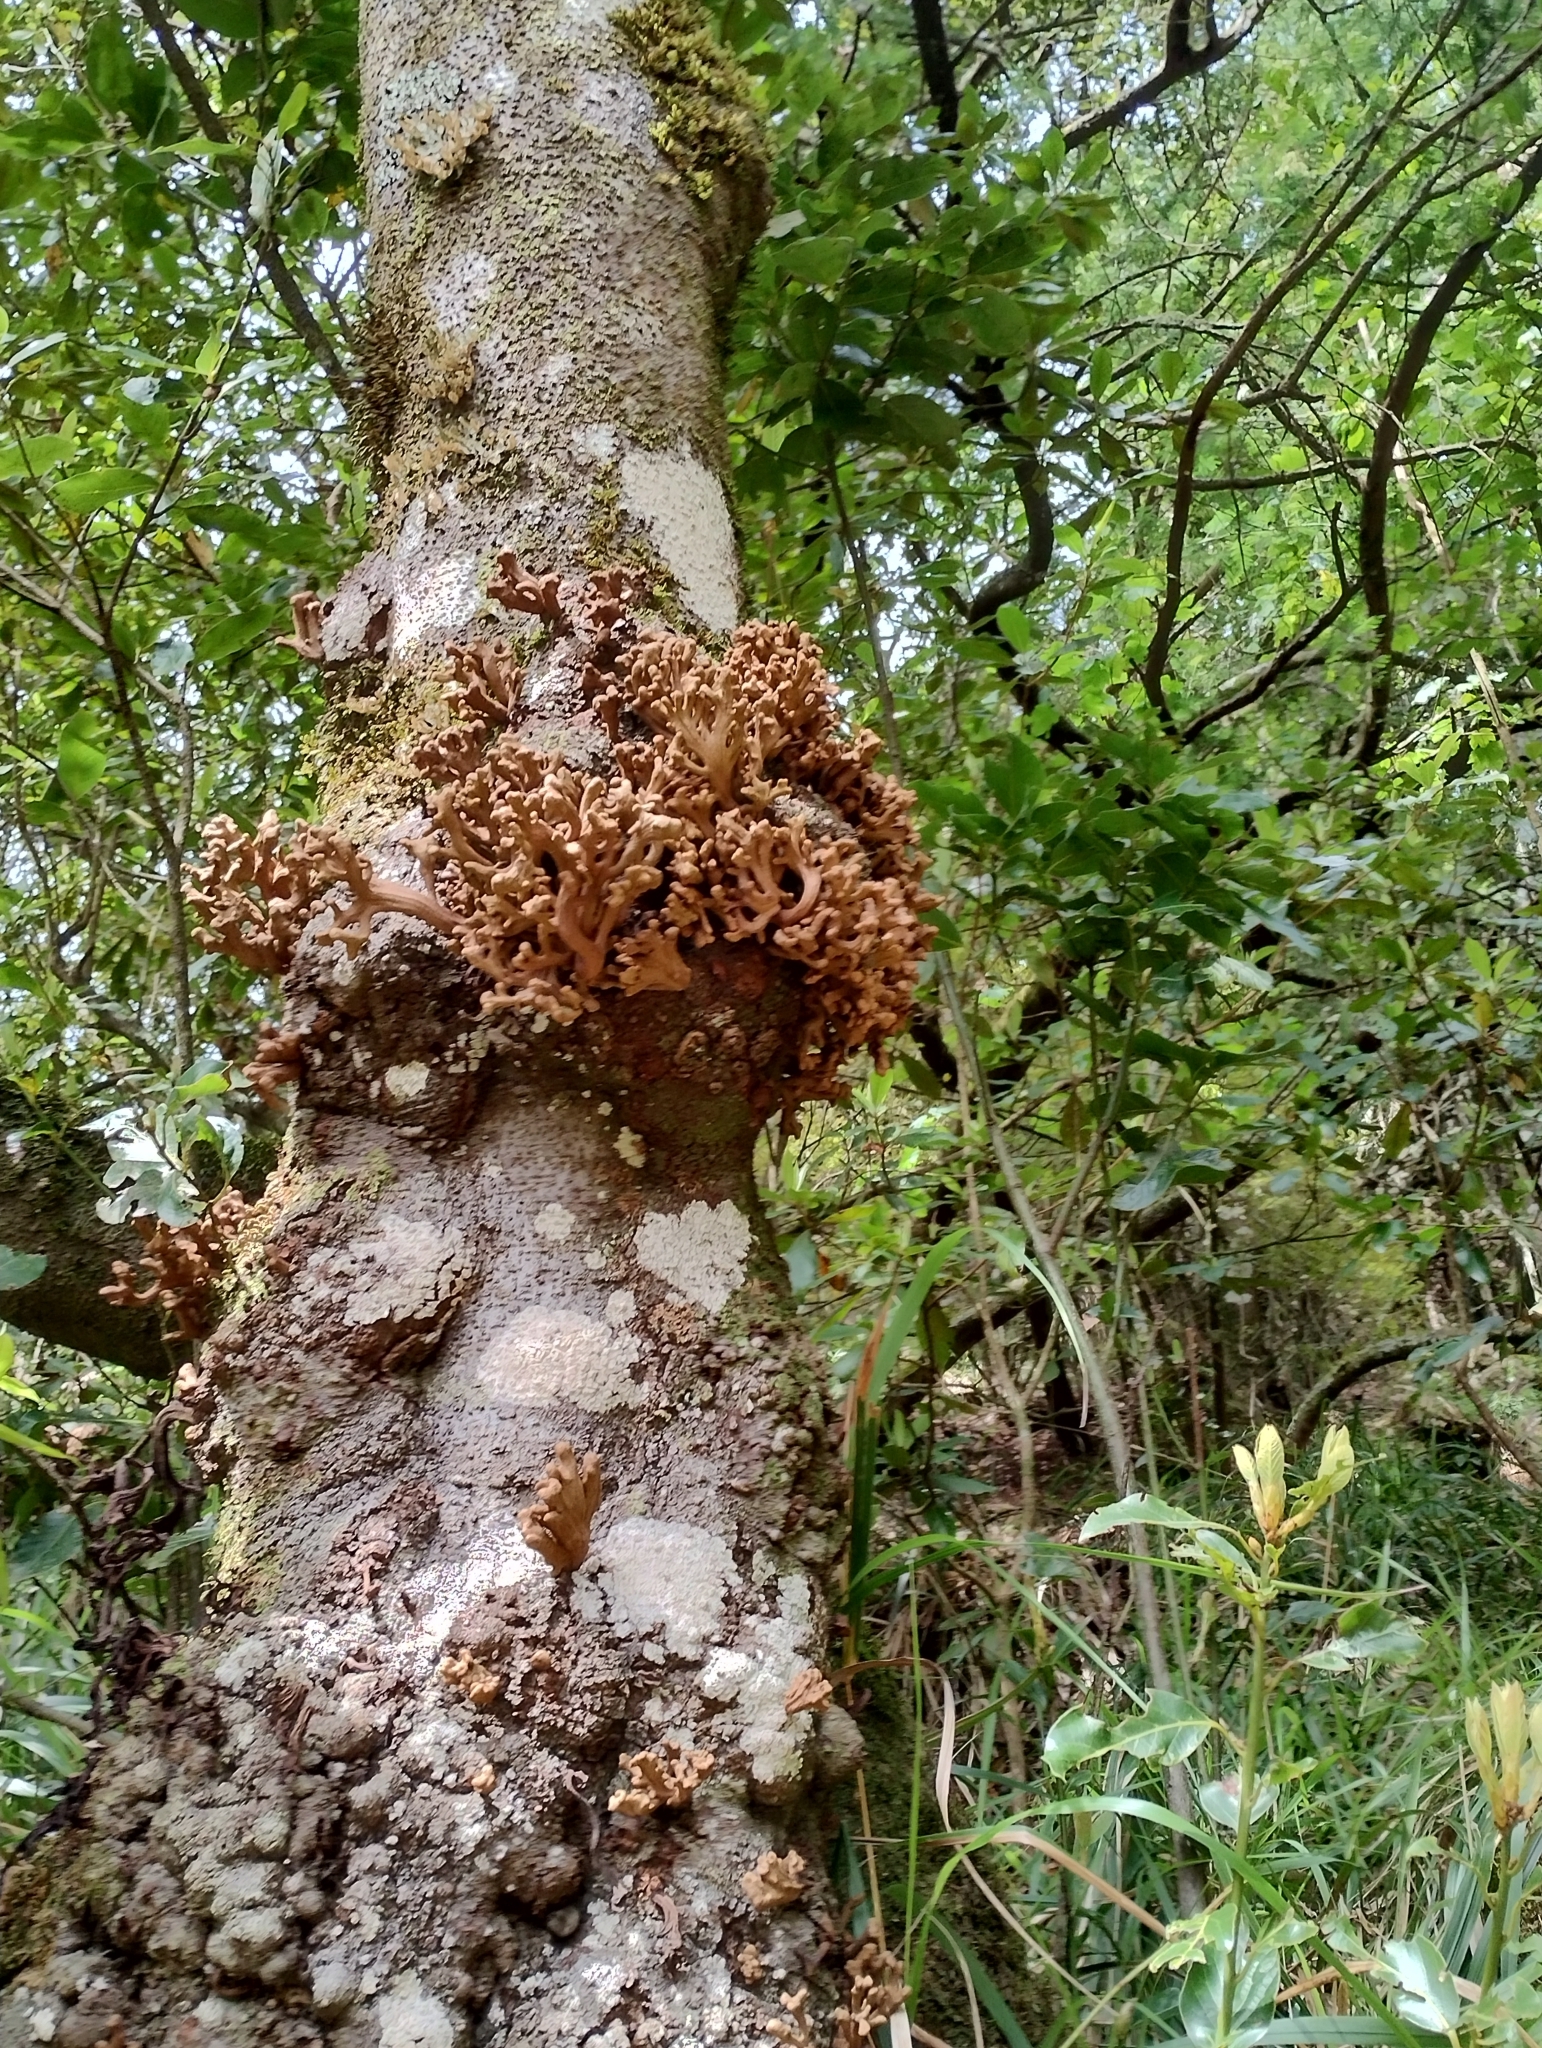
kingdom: Fungi
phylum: Basidiomycota
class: Exobasidiomycetes
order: Exobasidiales
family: Laurobasidiaceae
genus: Laurobasidium
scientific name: Laurobasidium lauri
